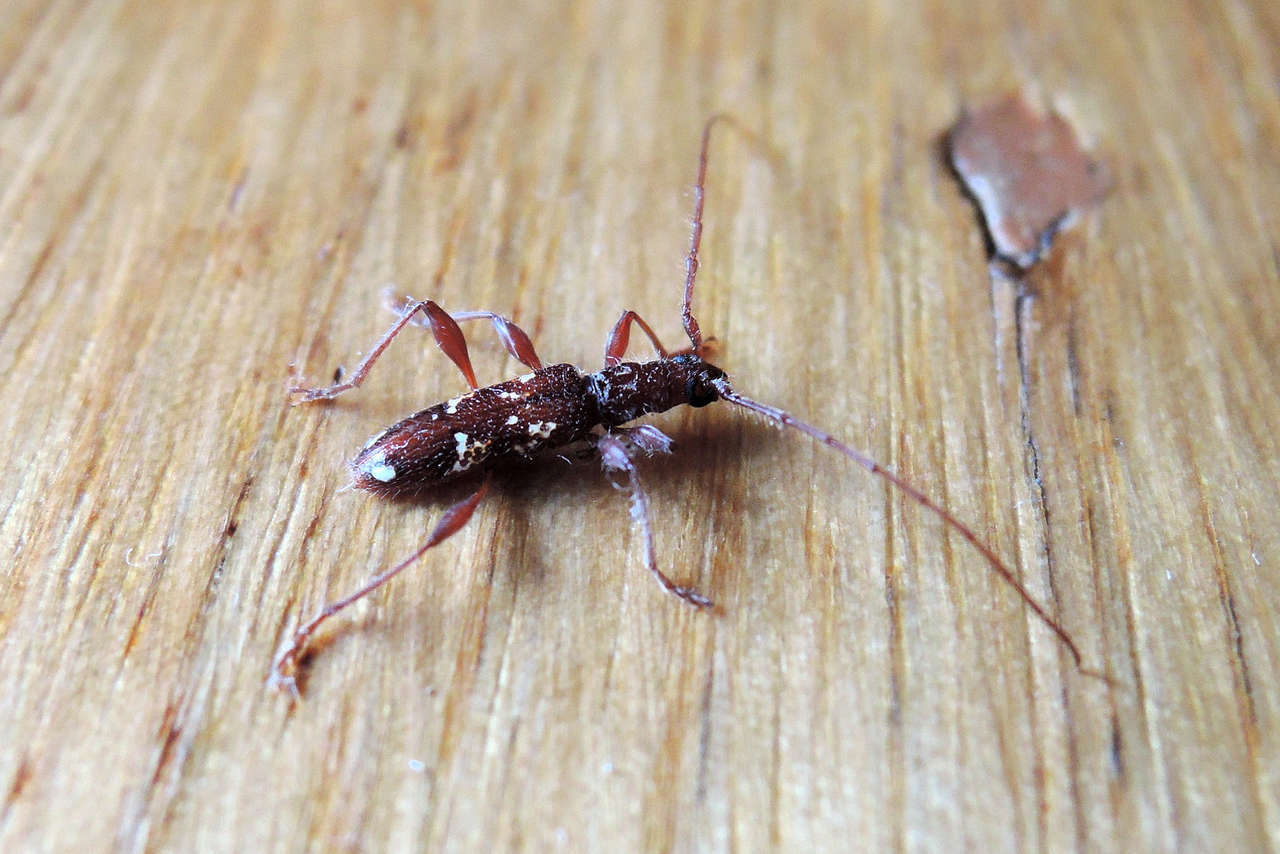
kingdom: Animalia
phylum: Arthropoda
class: Insecta
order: Coleoptera
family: Cerambycidae
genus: Coptocercus
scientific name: Coptocercus biguttatus
